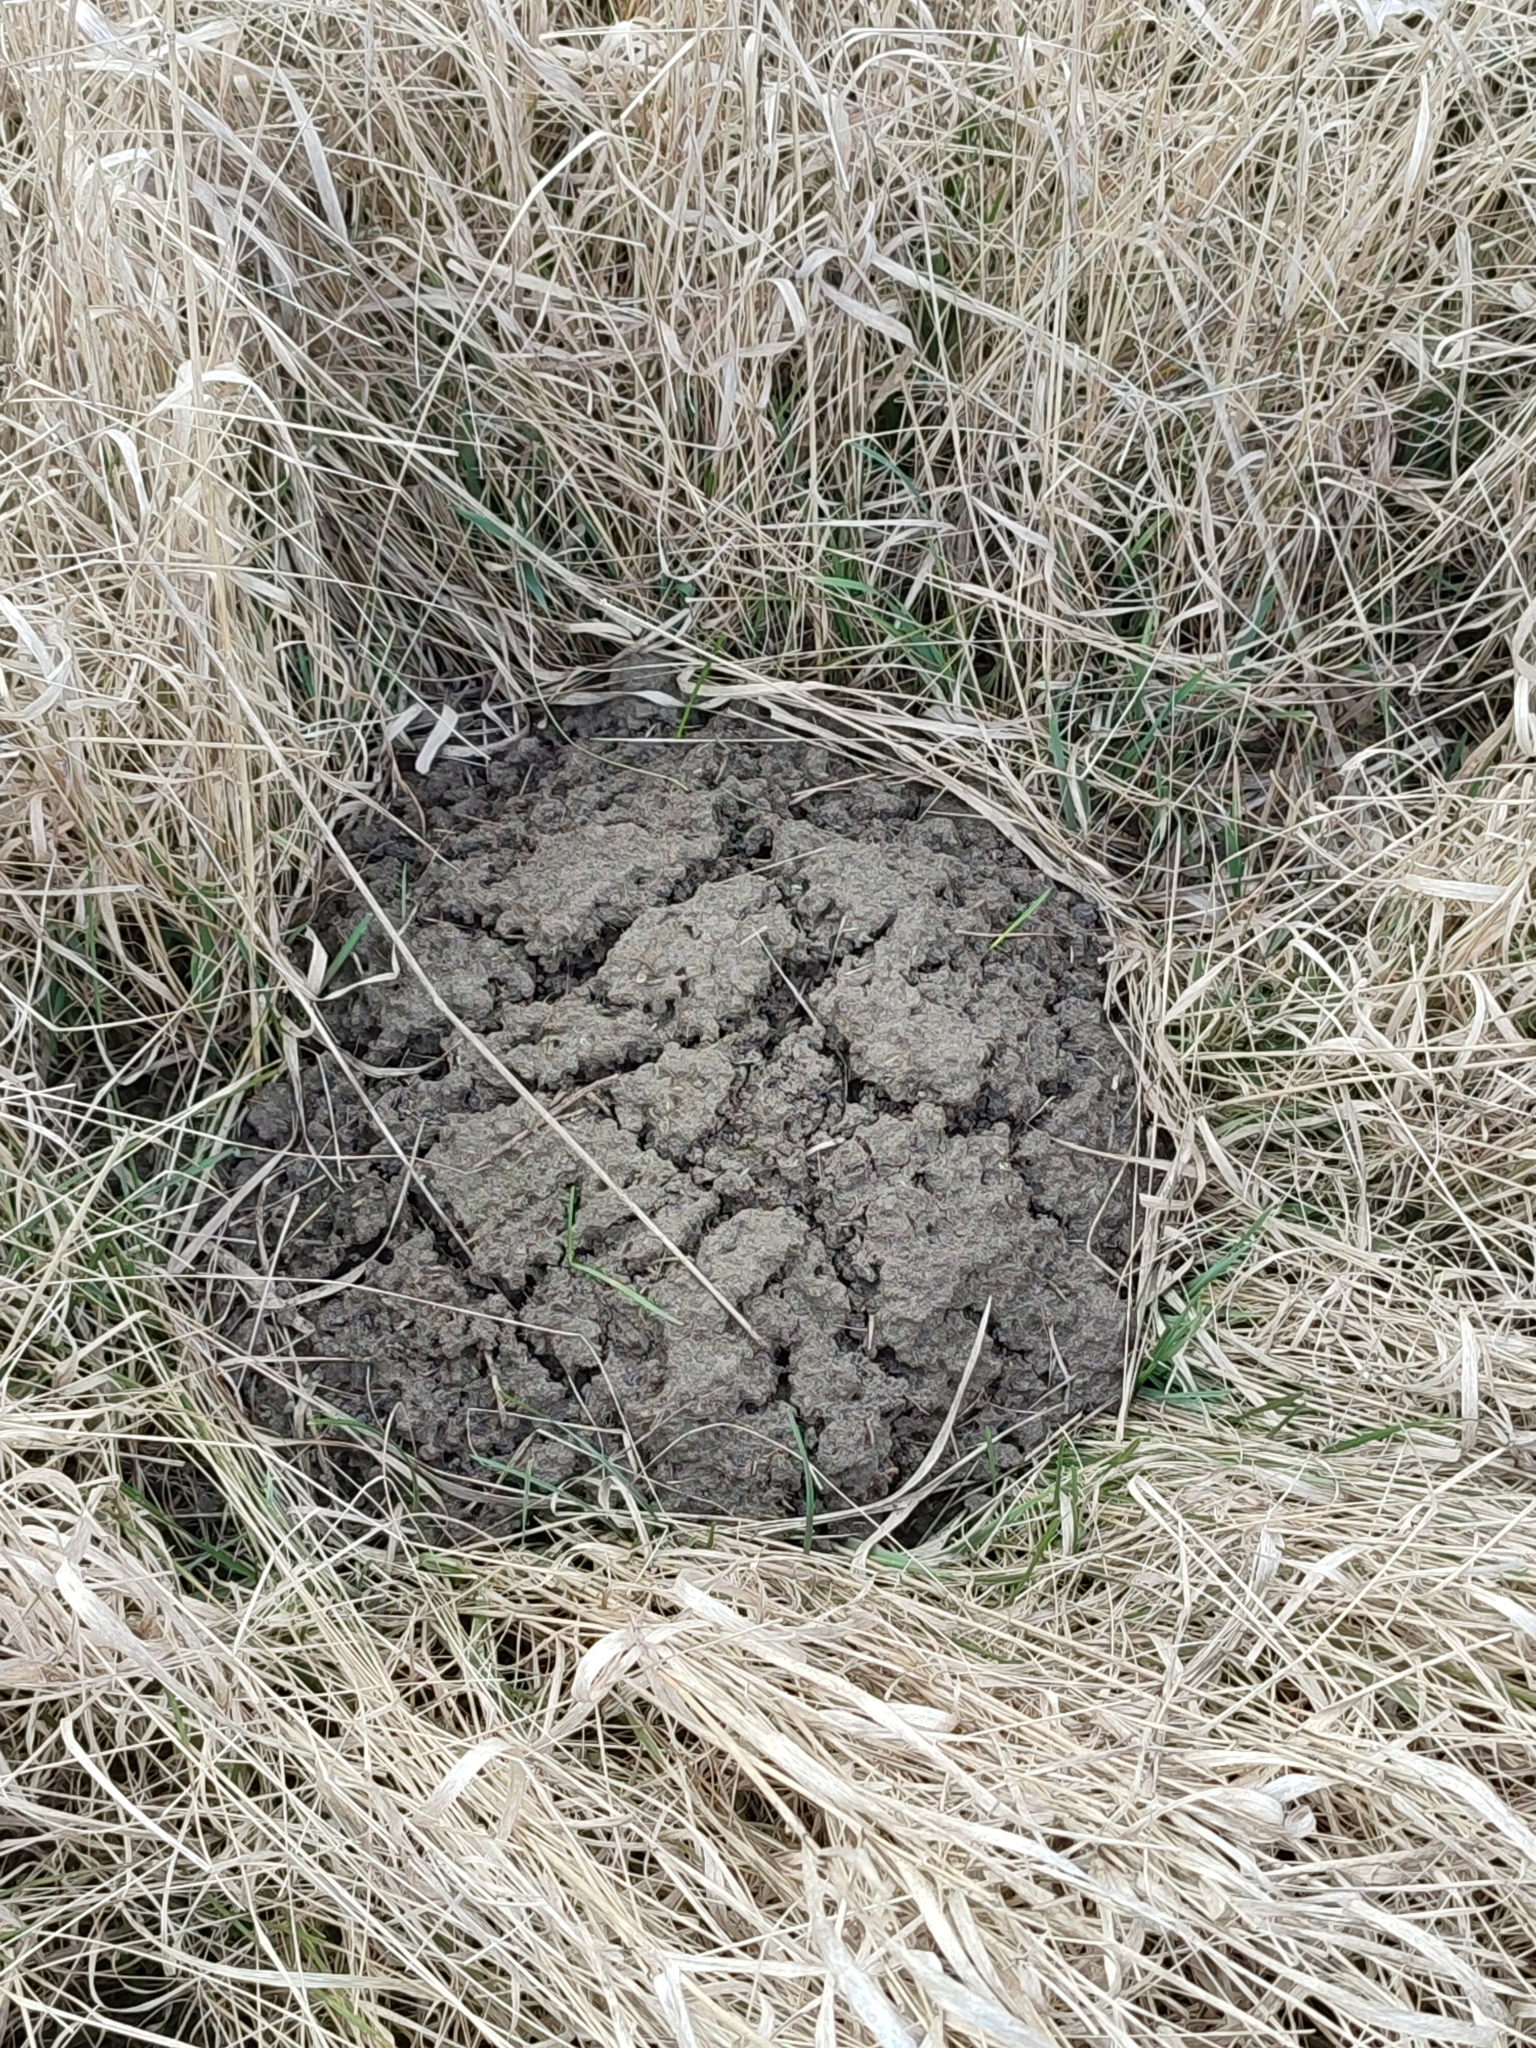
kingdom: Animalia
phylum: Chordata
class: Mammalia
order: Soricomorpha
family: Talpidae
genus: Talpa
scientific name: Talpa europaea
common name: European mole
